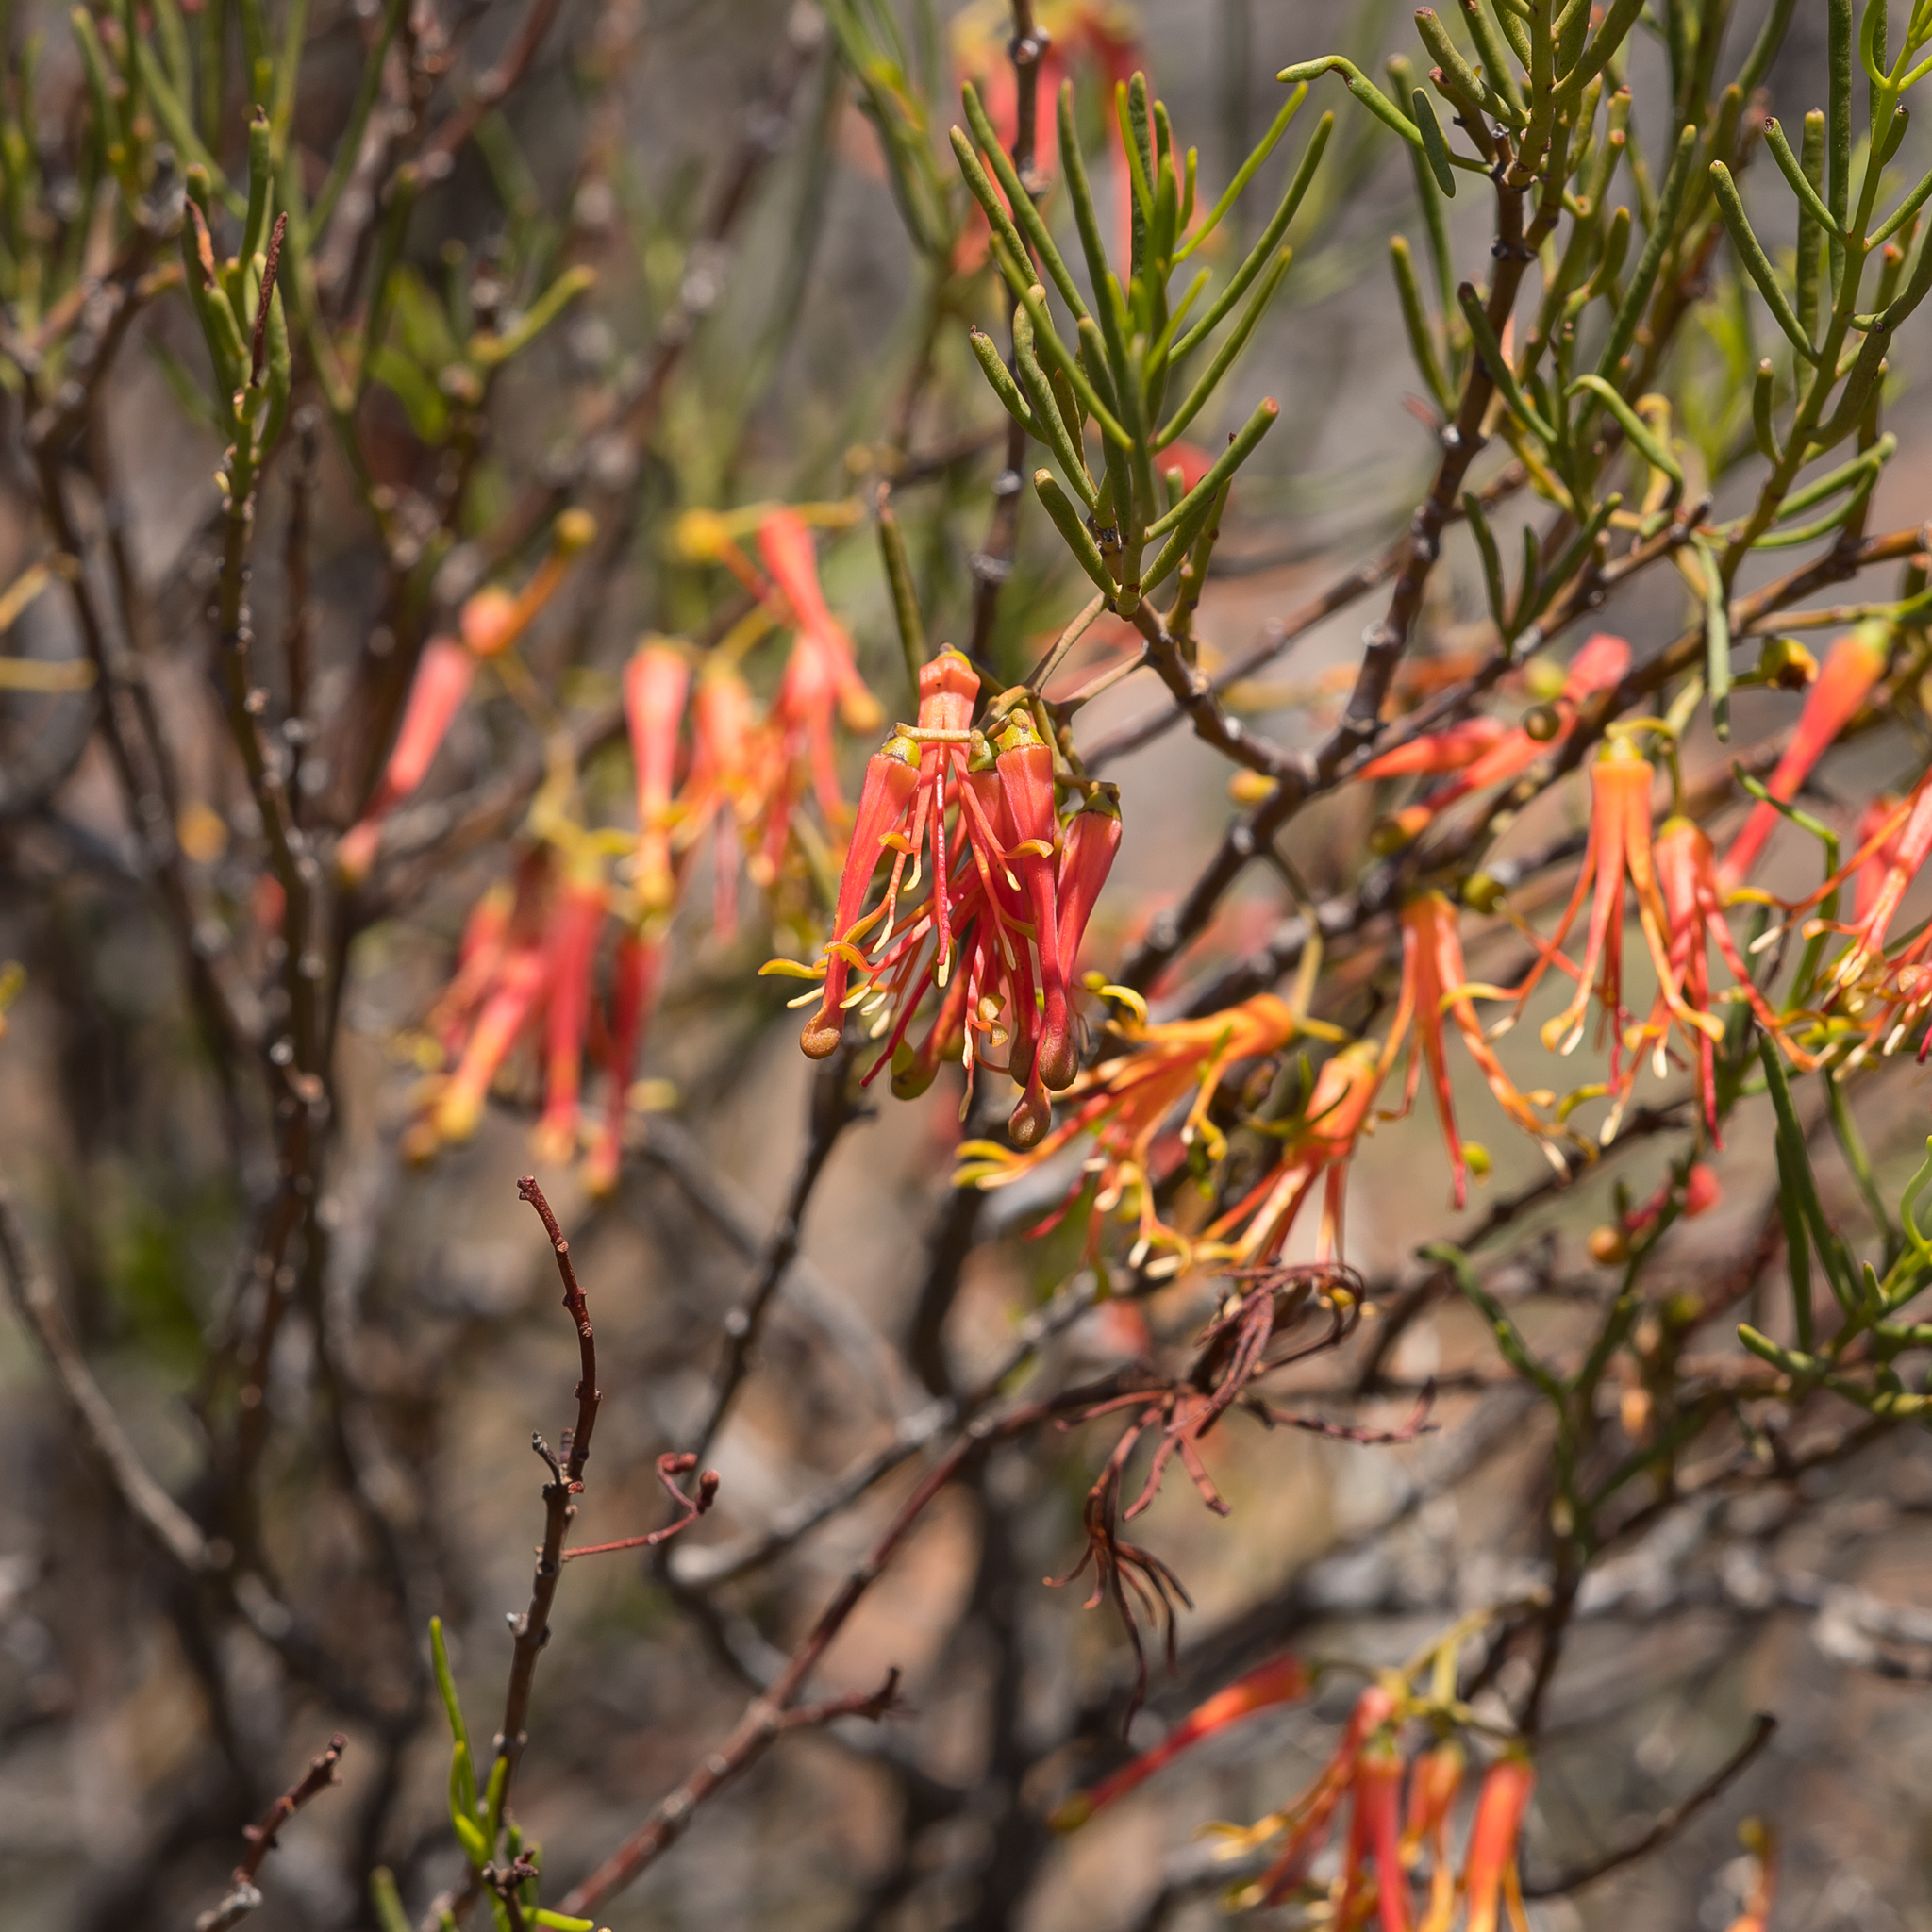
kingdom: Plantae
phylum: Tracheophyta
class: Magnoliopsida
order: Santalales
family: Loranthaceae
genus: Amyema
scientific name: Amyema preissii
